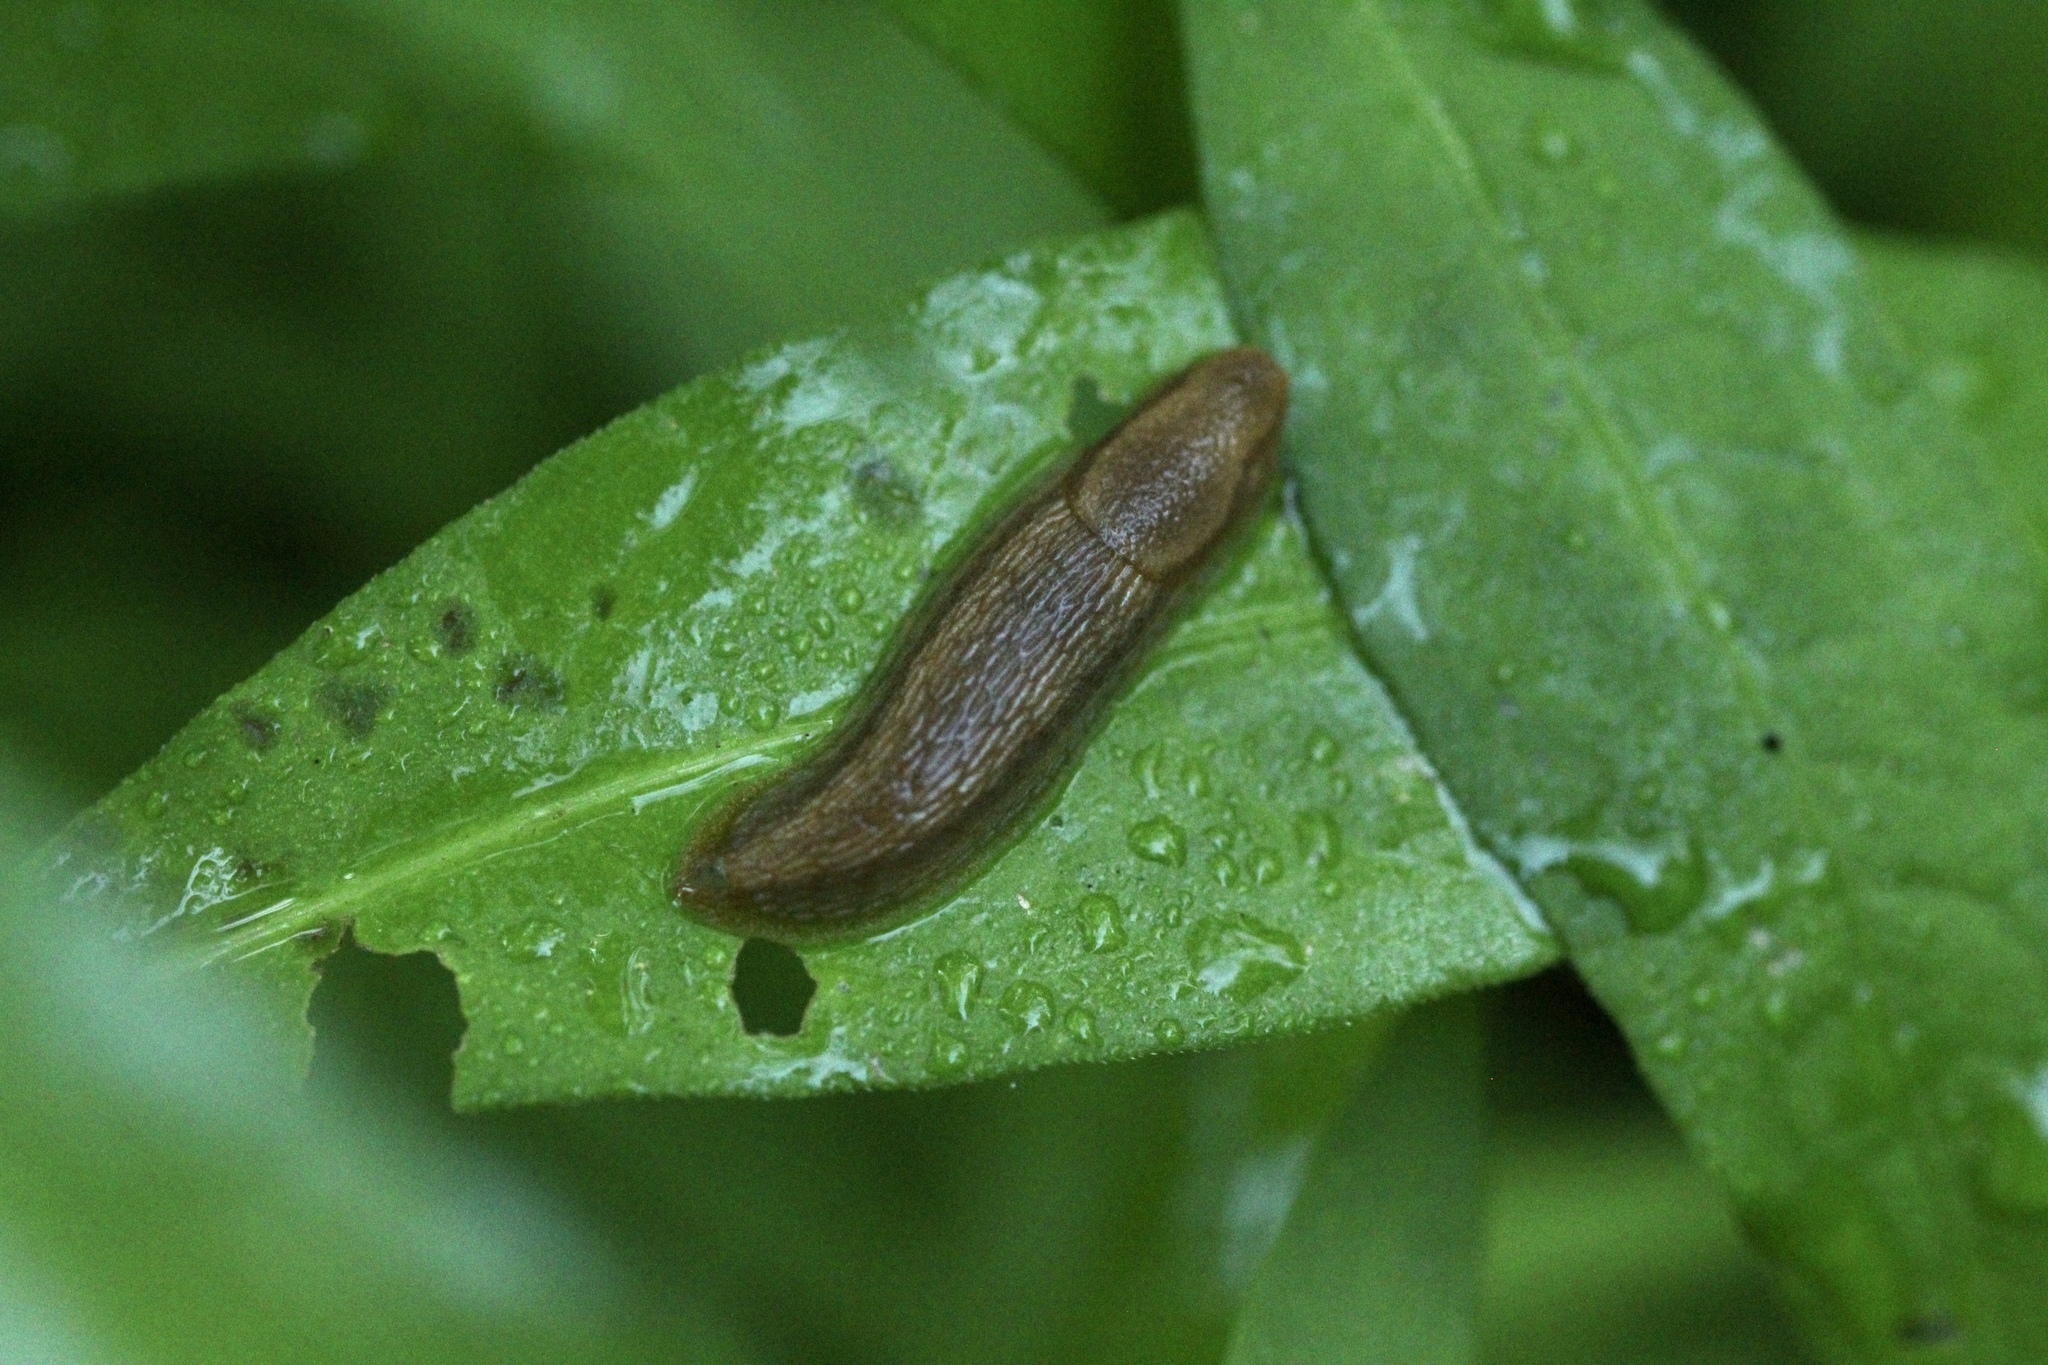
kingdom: Animalia
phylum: Mollusca
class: Gastropoda
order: Stylommatophora
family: Arionidae
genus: Mesarion
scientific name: Mesarion
